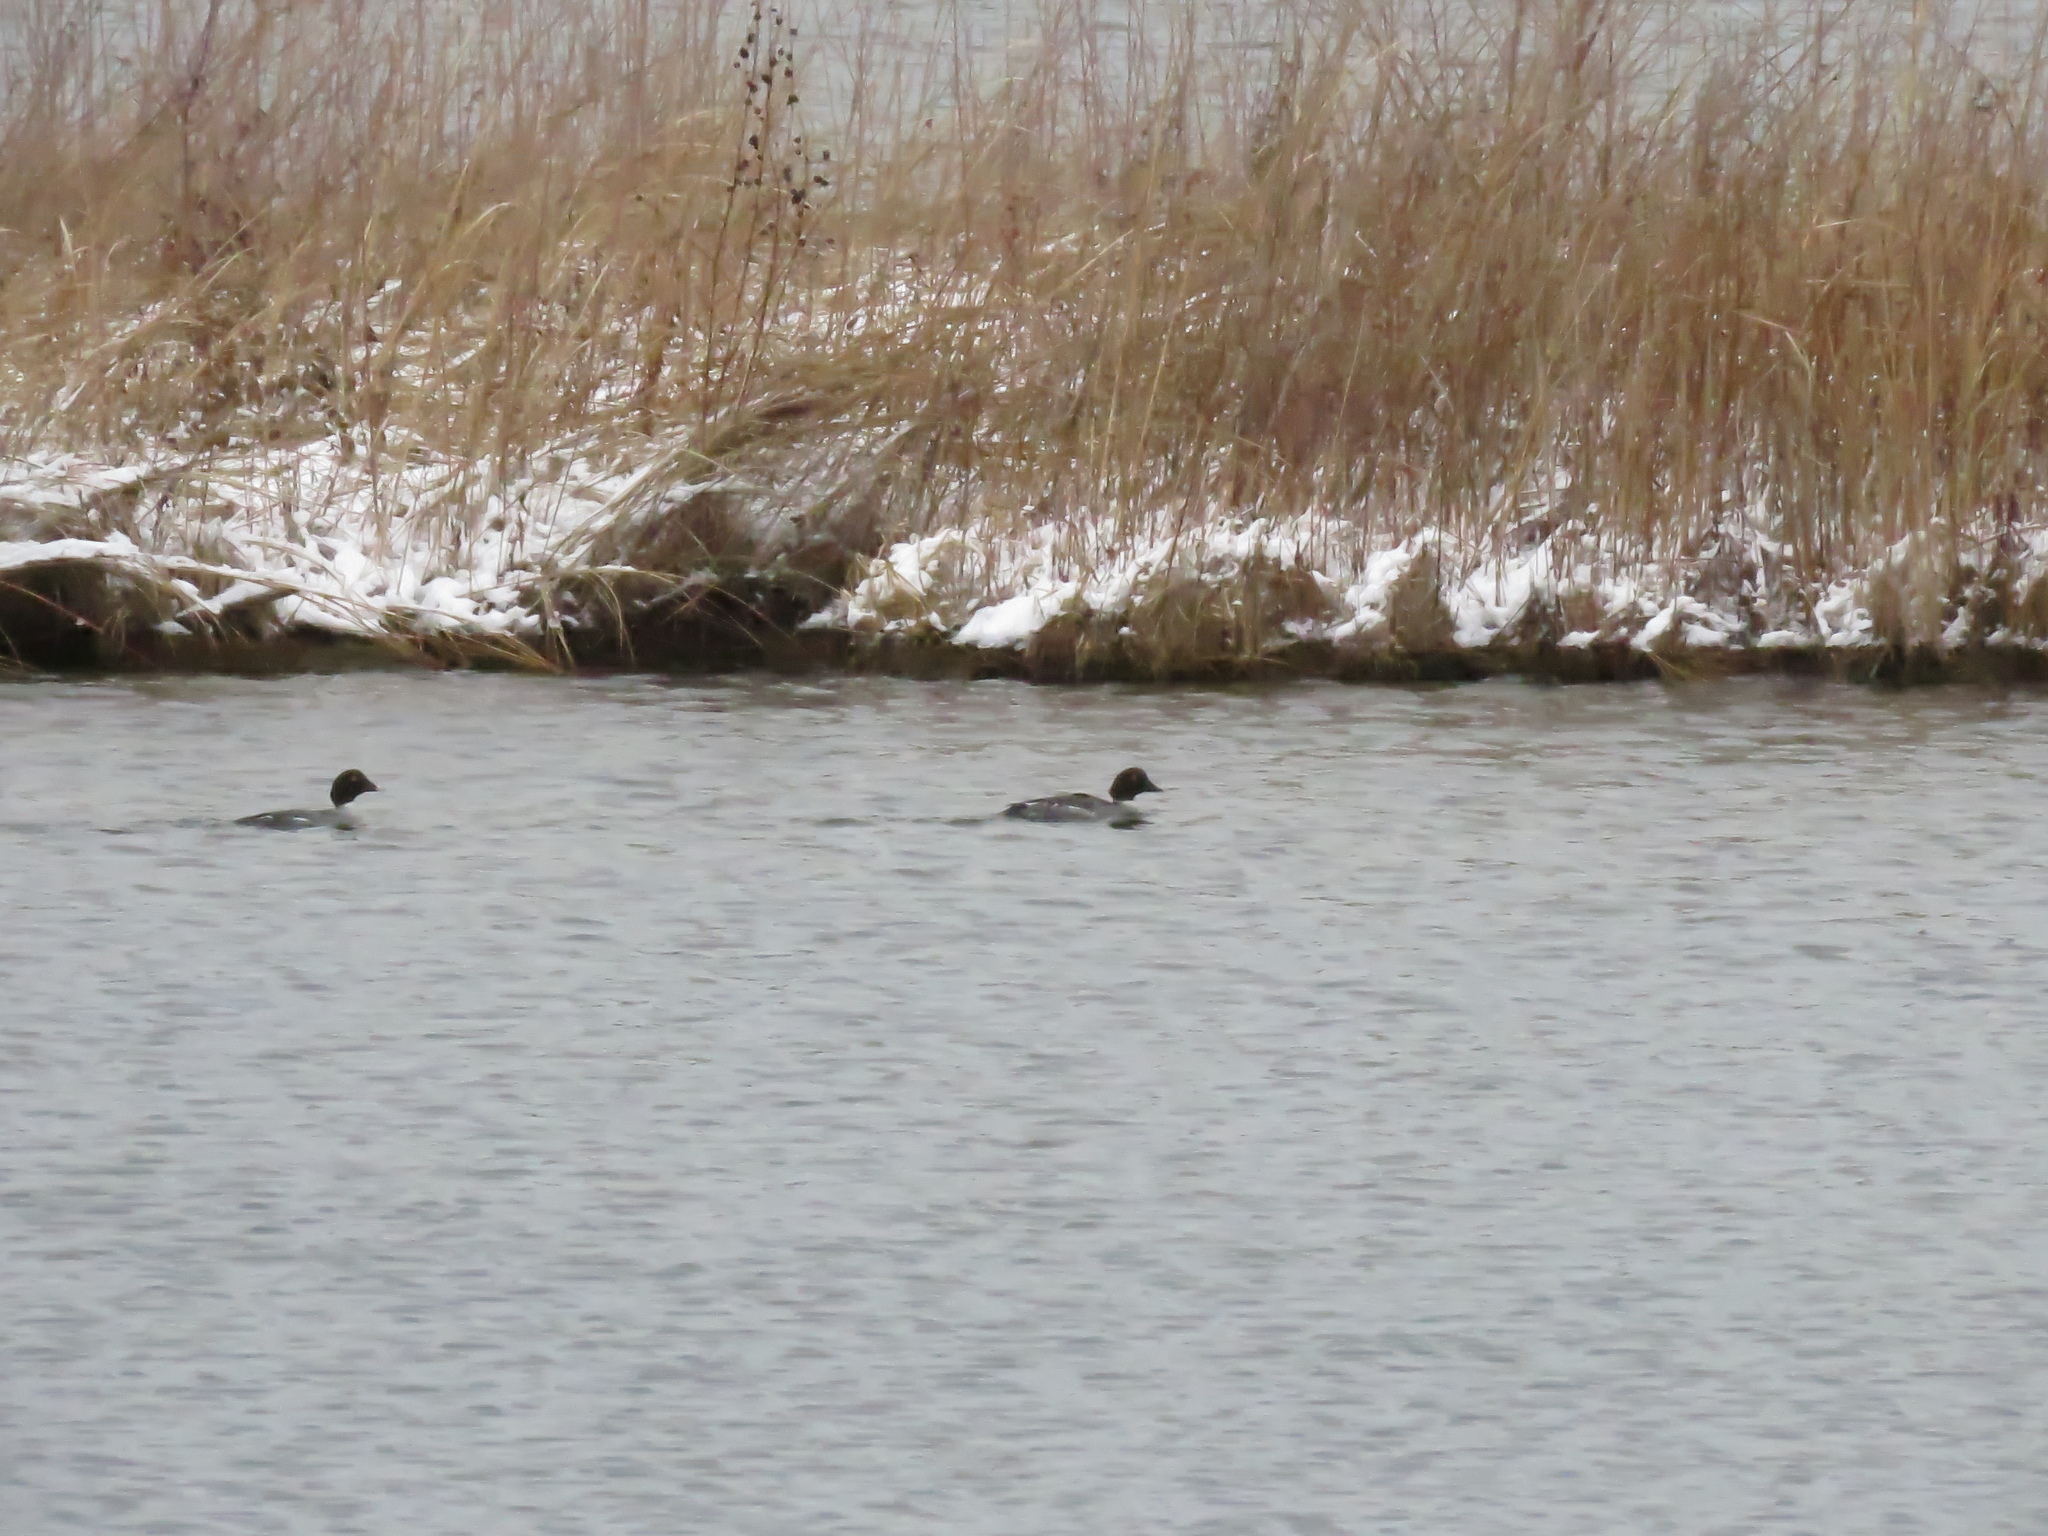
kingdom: Animalia
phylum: Chordata
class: Aves
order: Anseriformes
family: Anatidae
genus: Bucephala
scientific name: Bucephala clangula
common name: Common goldeneye
